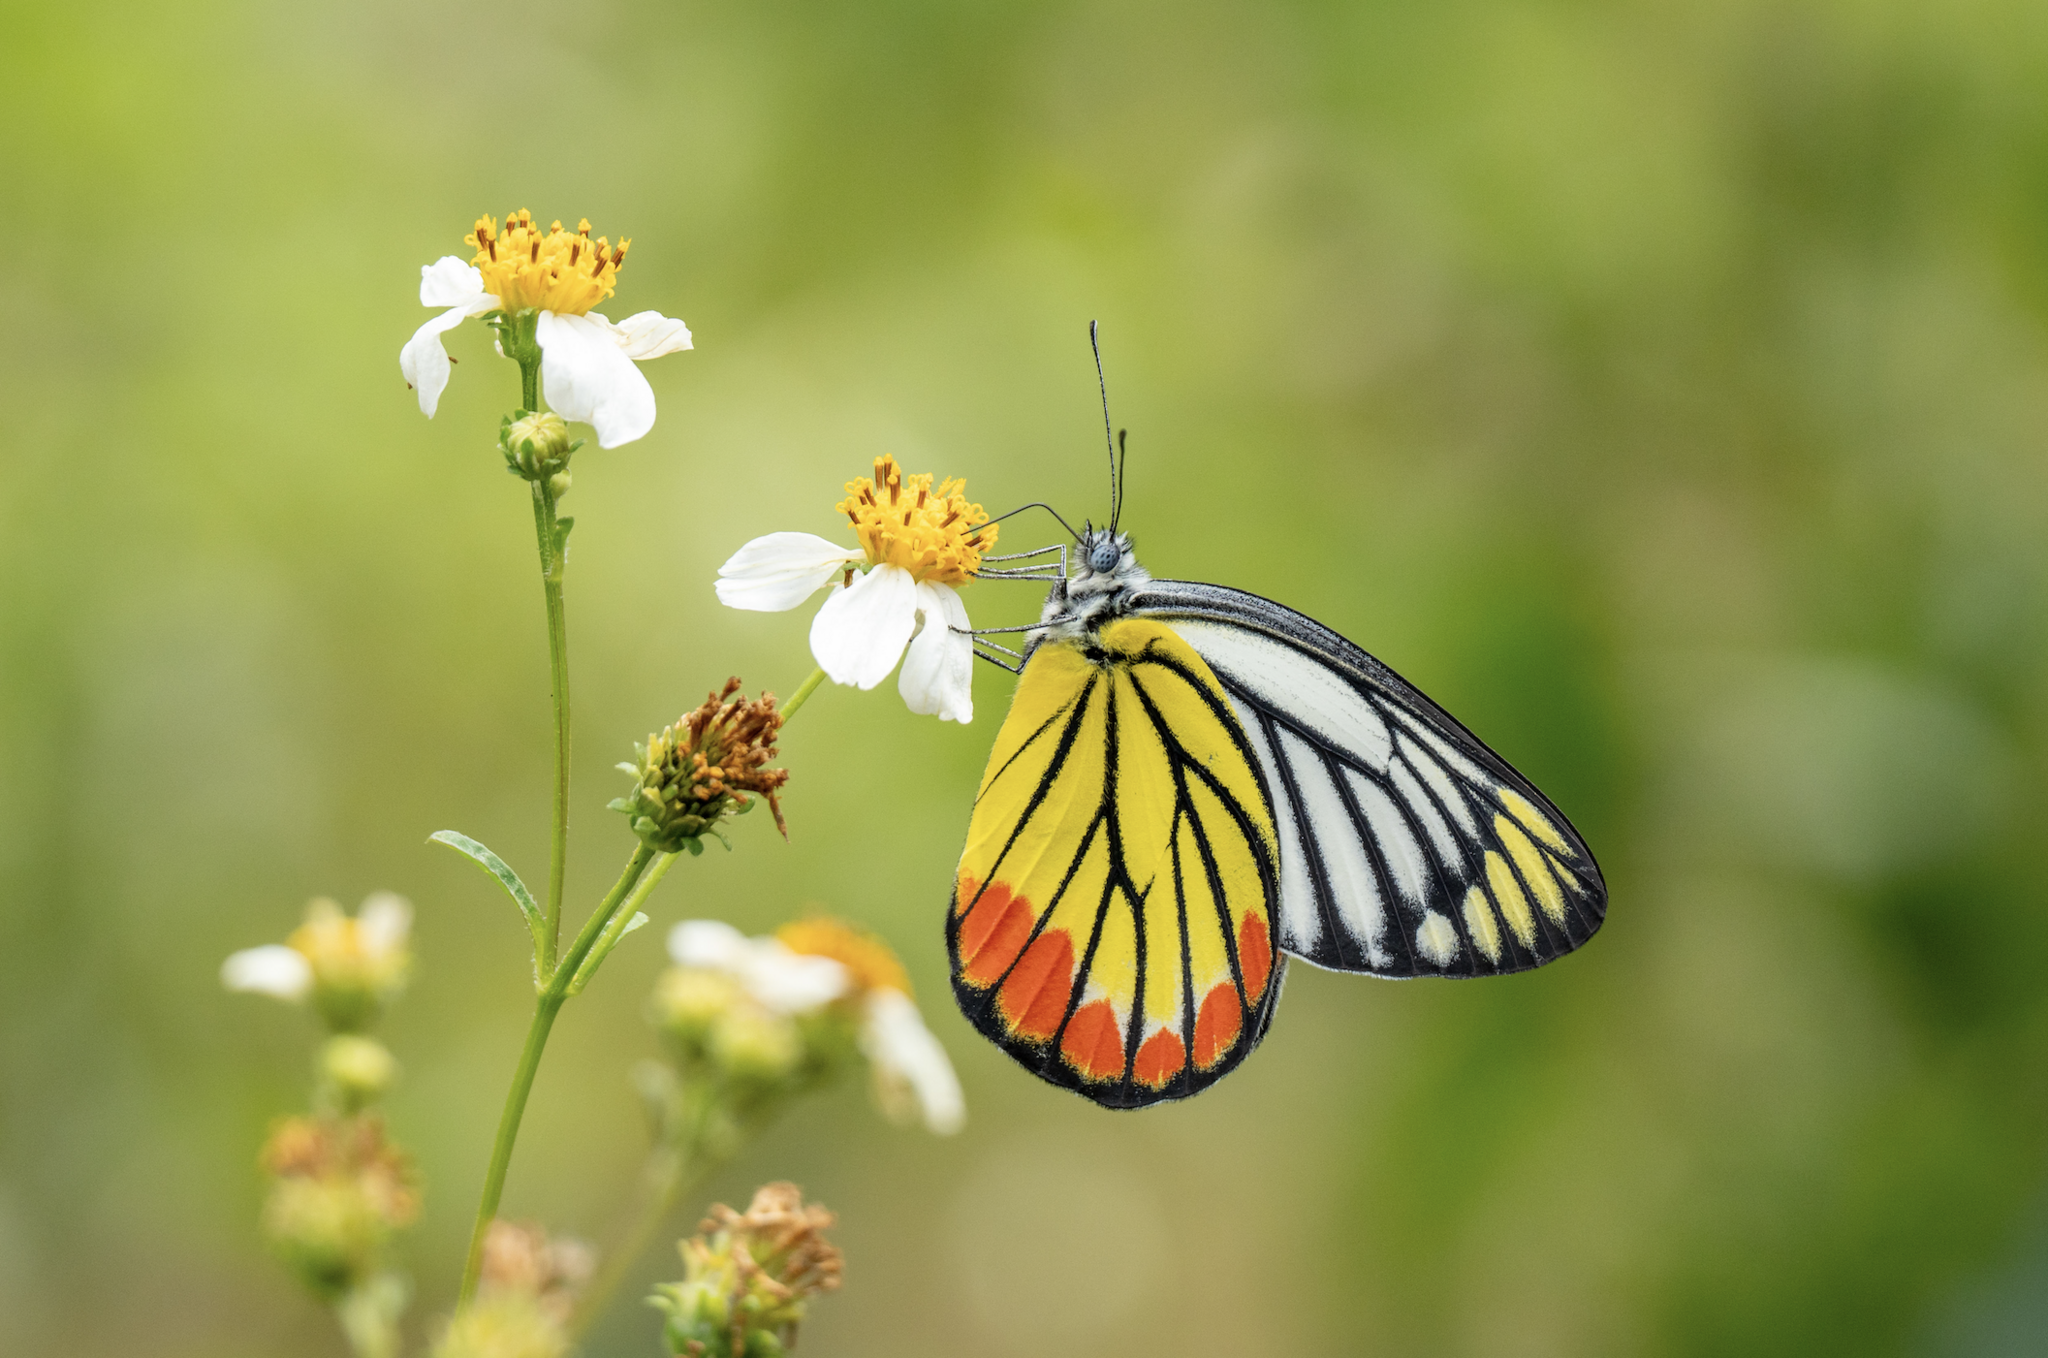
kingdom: Animalia
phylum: Arthropoda
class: Insecta
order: Lepidoptera
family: Pieridae
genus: Delias
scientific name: Delias hyparete
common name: Painted jezebel
